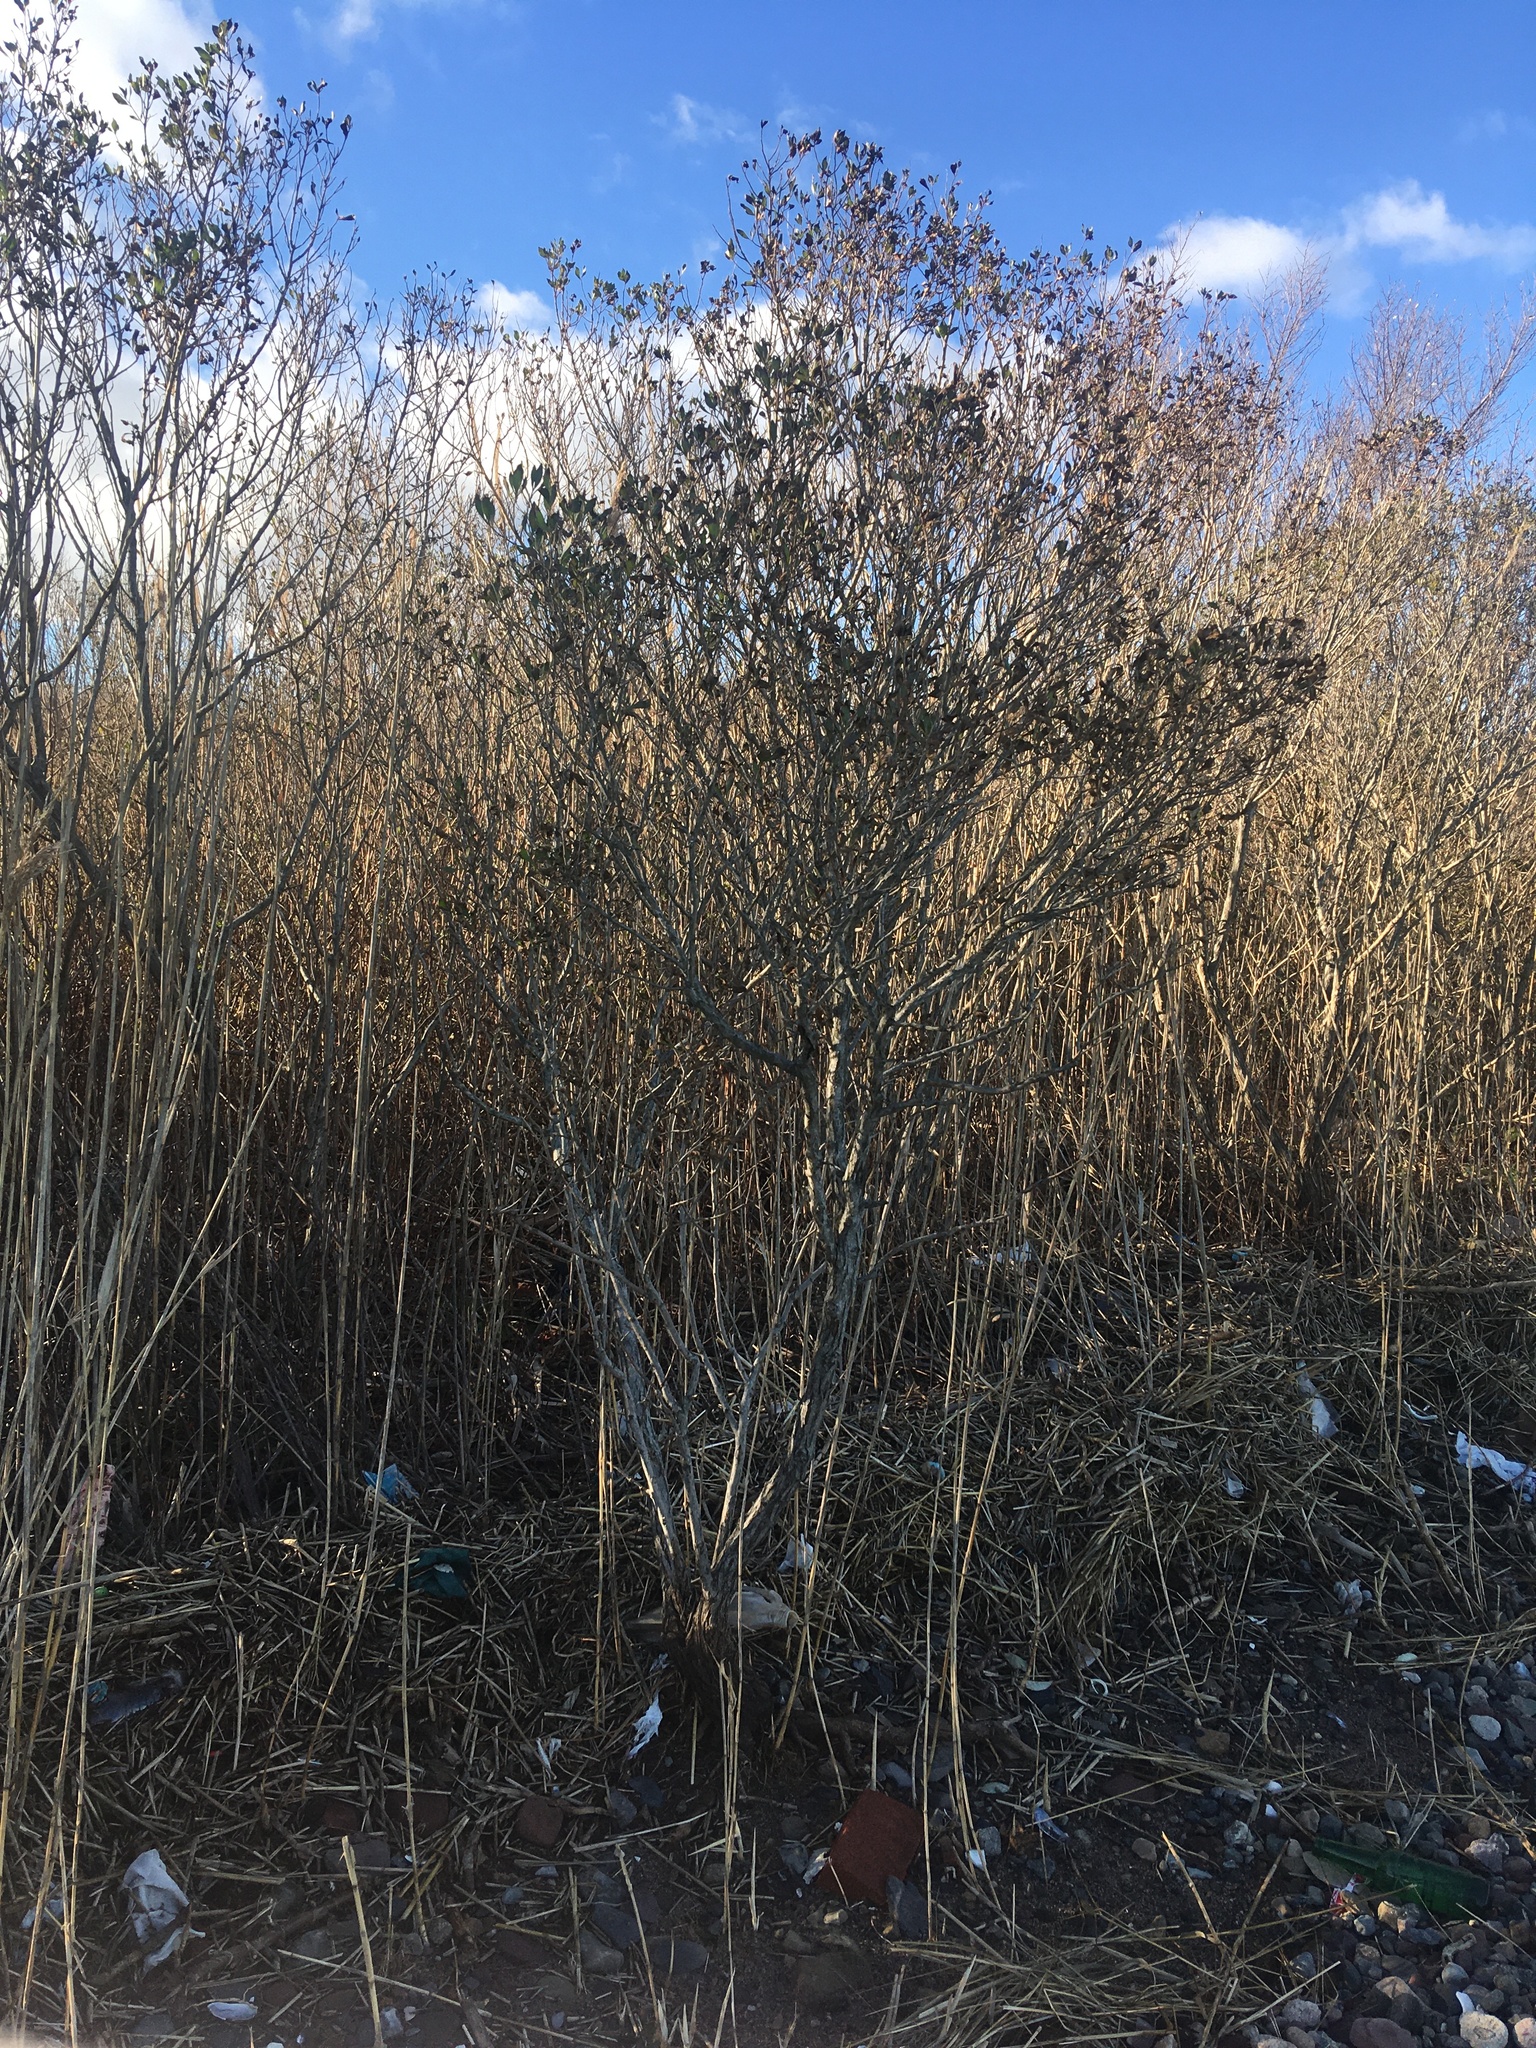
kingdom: Plantae
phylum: Tracheophyta
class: Magnoliopsida
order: Asterales
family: Asteraceae
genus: Baccharis
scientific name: Baccharis halimifolia
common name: Eastern baccharis
